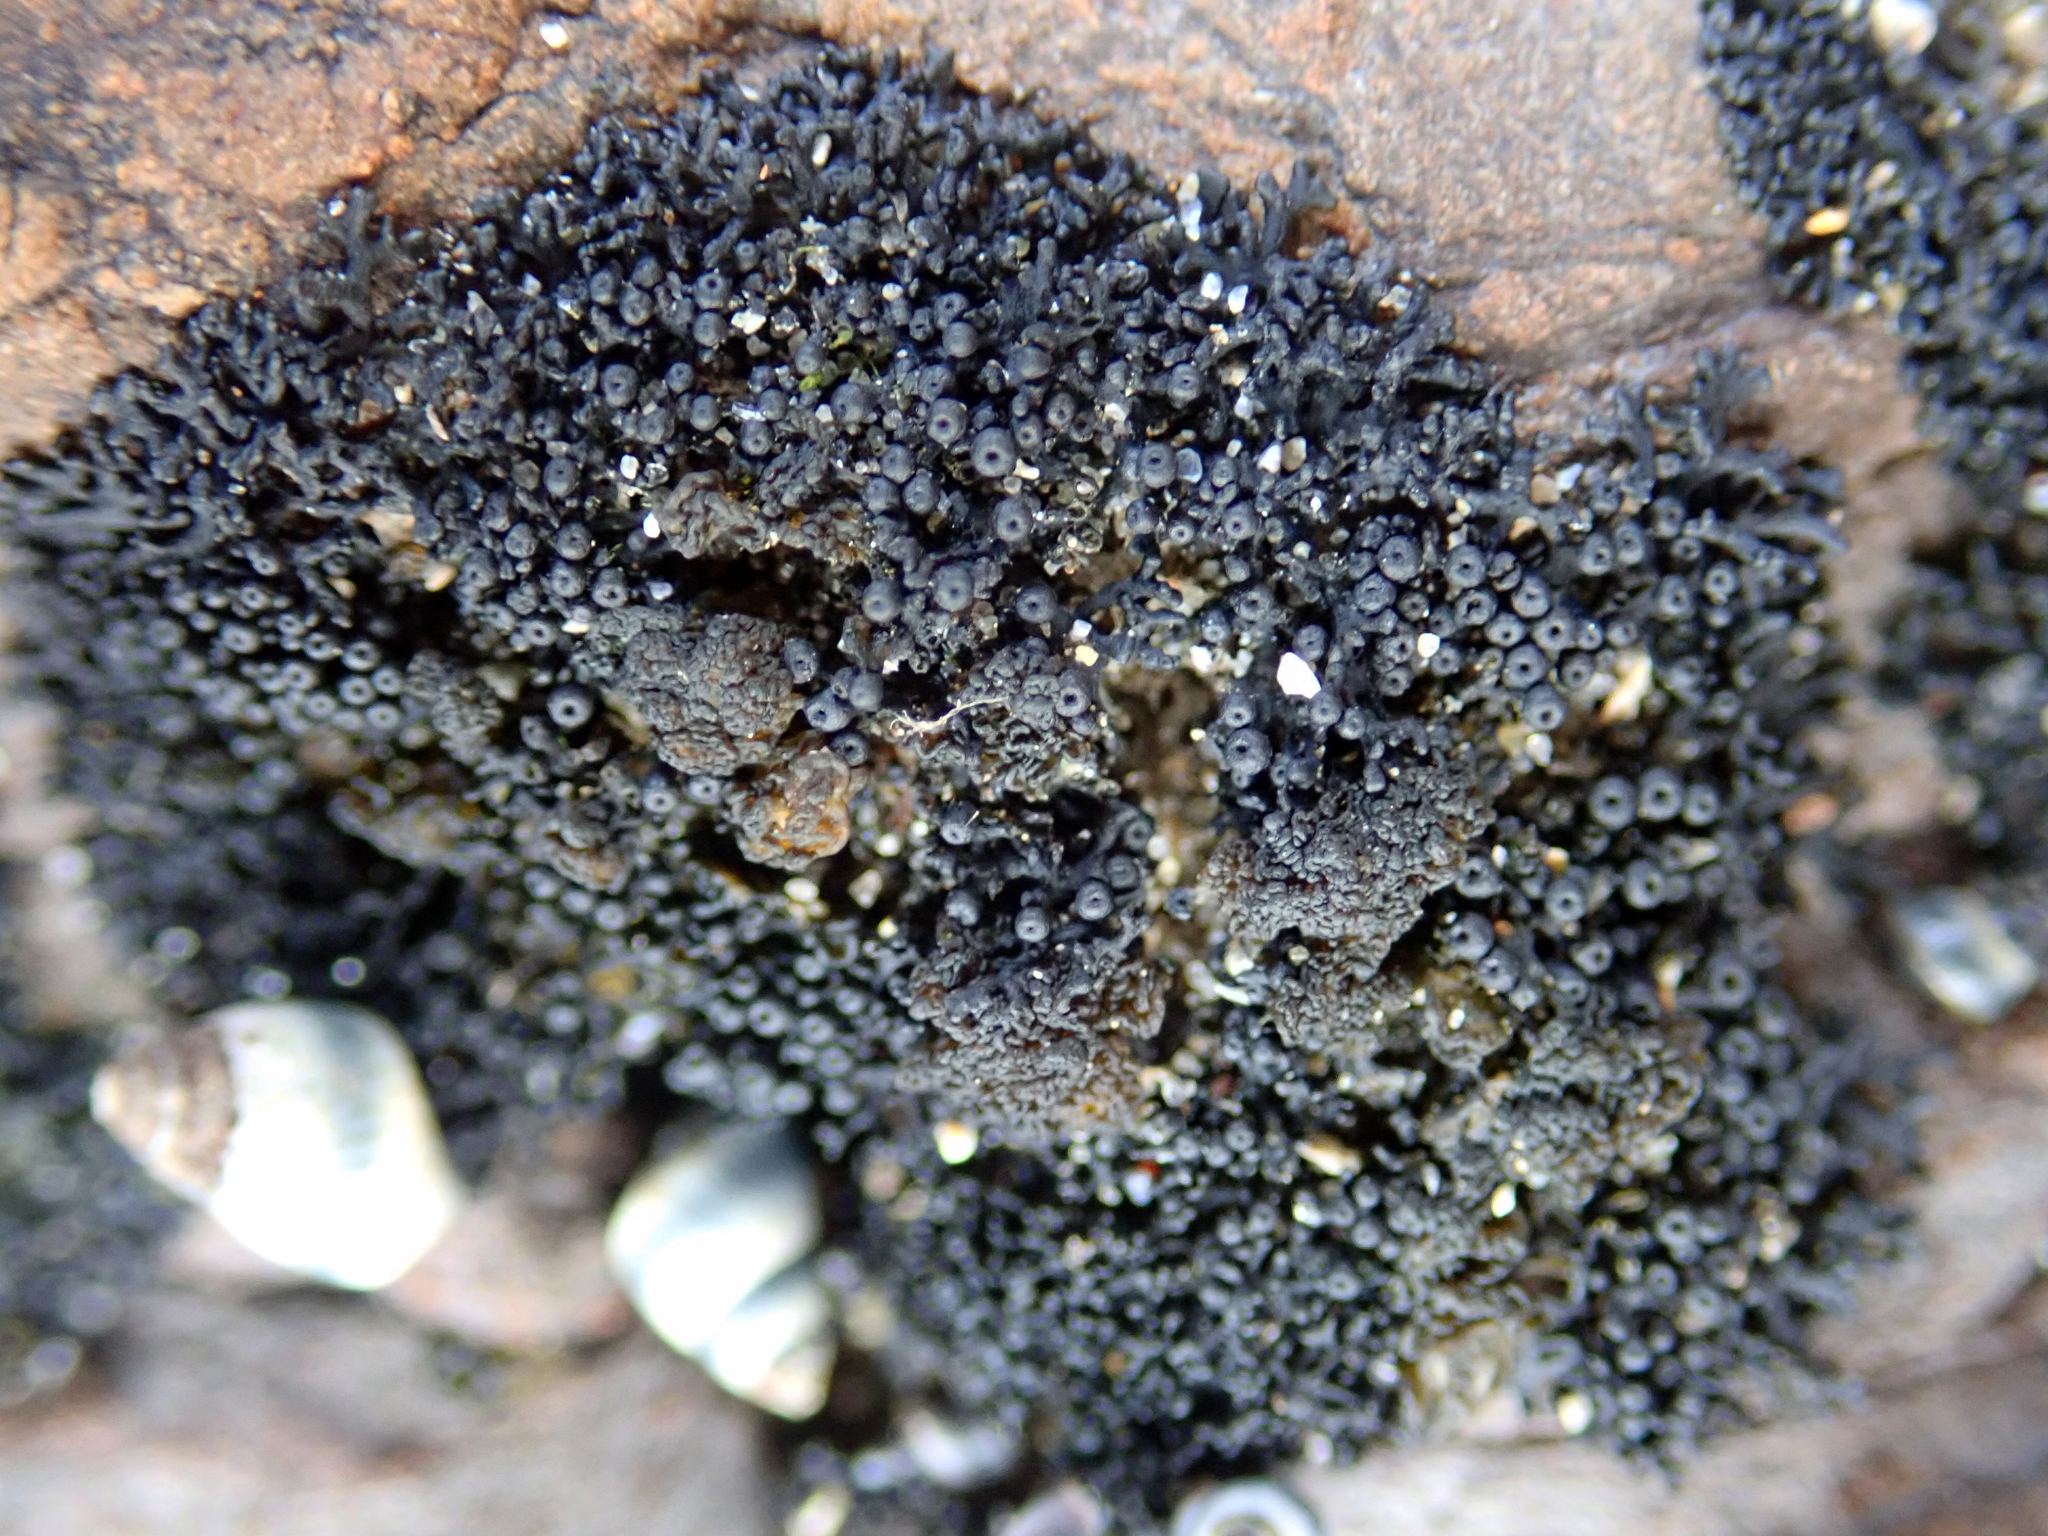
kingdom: Animalia
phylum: Mollusca
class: Gastropoda
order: Littorinimorpha
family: Littorinidae
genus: Austrolittorina
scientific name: Austrolittorina antipodum
